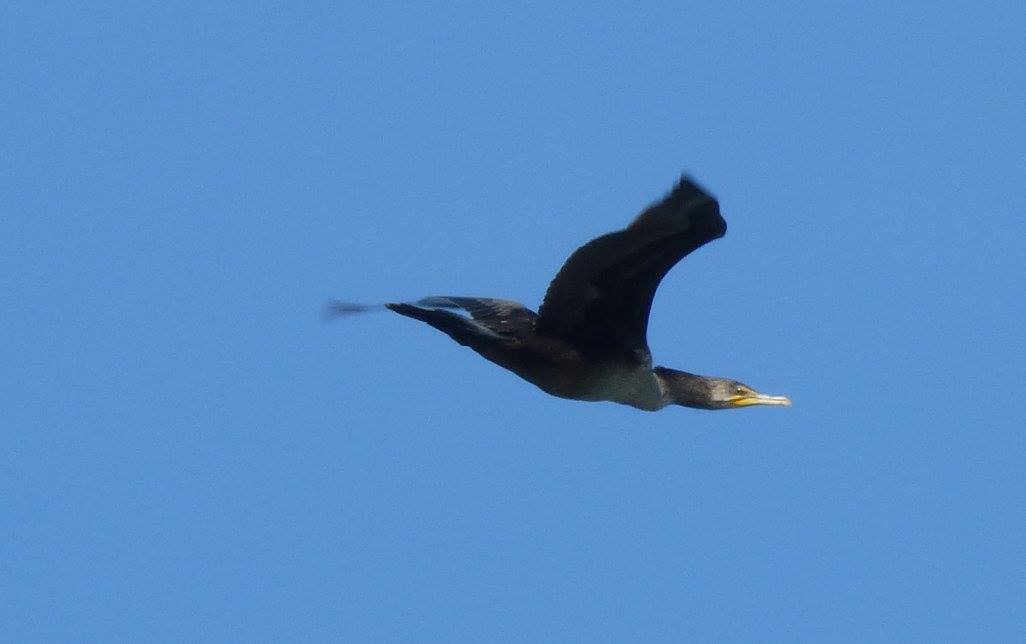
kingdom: Animalia
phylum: Chordata
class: Aves
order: Suliformes
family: Phalacrocoracidae
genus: Phalacrocorax
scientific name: Phalacrocorax auritus
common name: Double-crested cormorant
